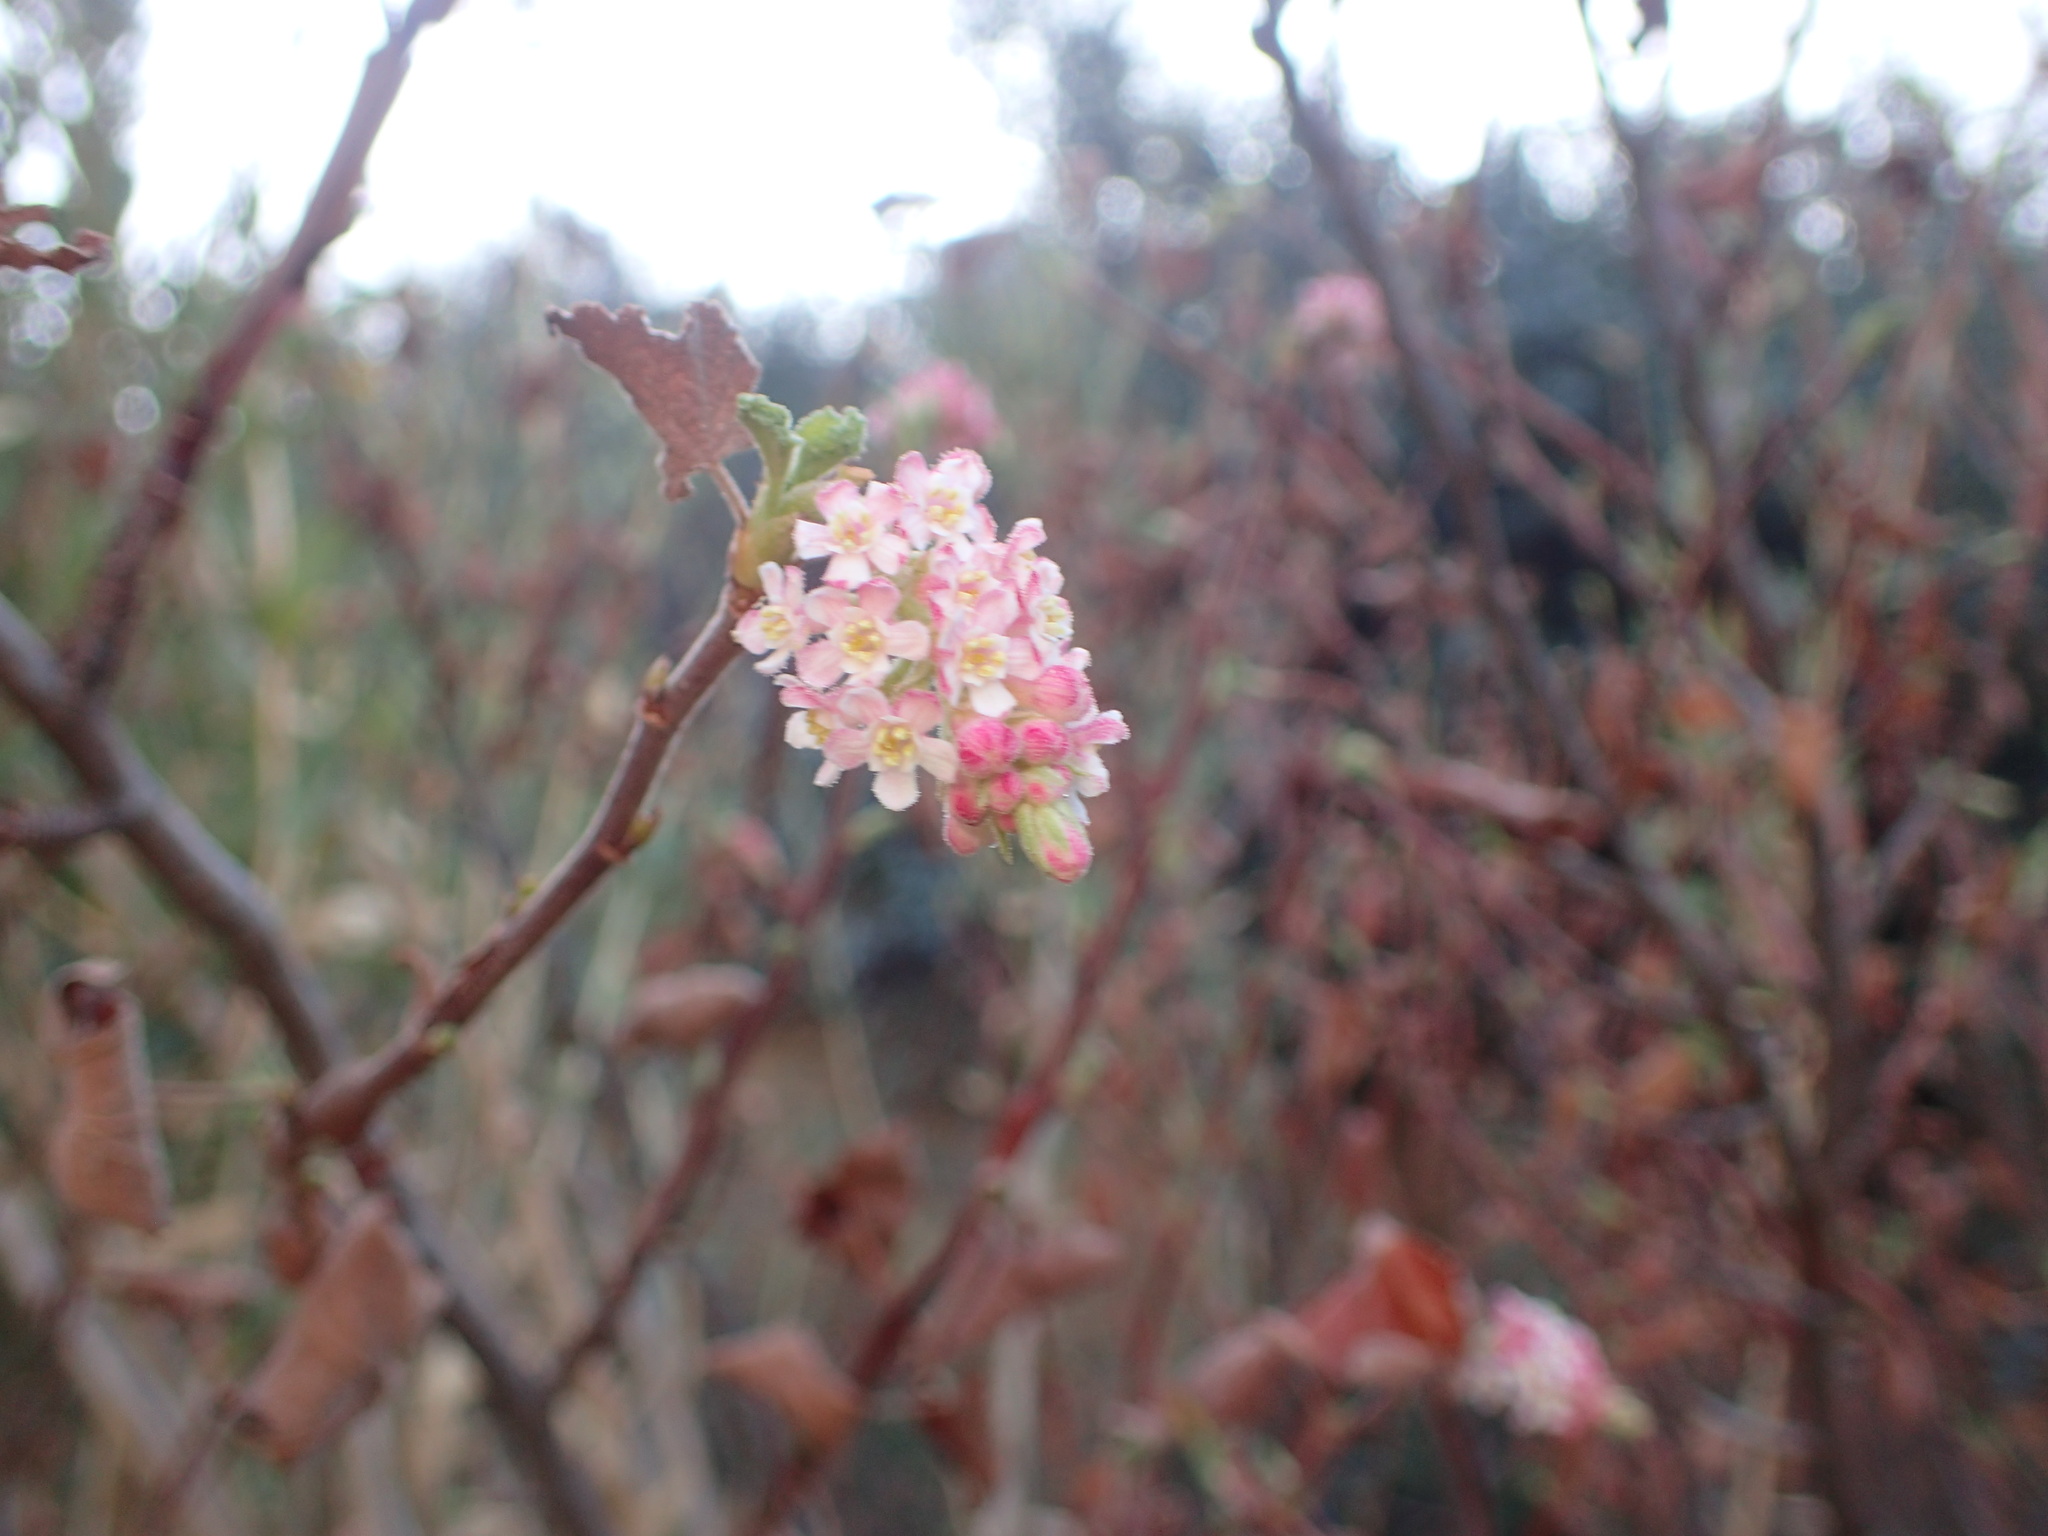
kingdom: Plantae
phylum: Tracheophyta
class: Magnoliopsida
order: Saxifragales
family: Grossulariaceae
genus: Ribes
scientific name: Ribes malvaceum
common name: Chaparral currant
